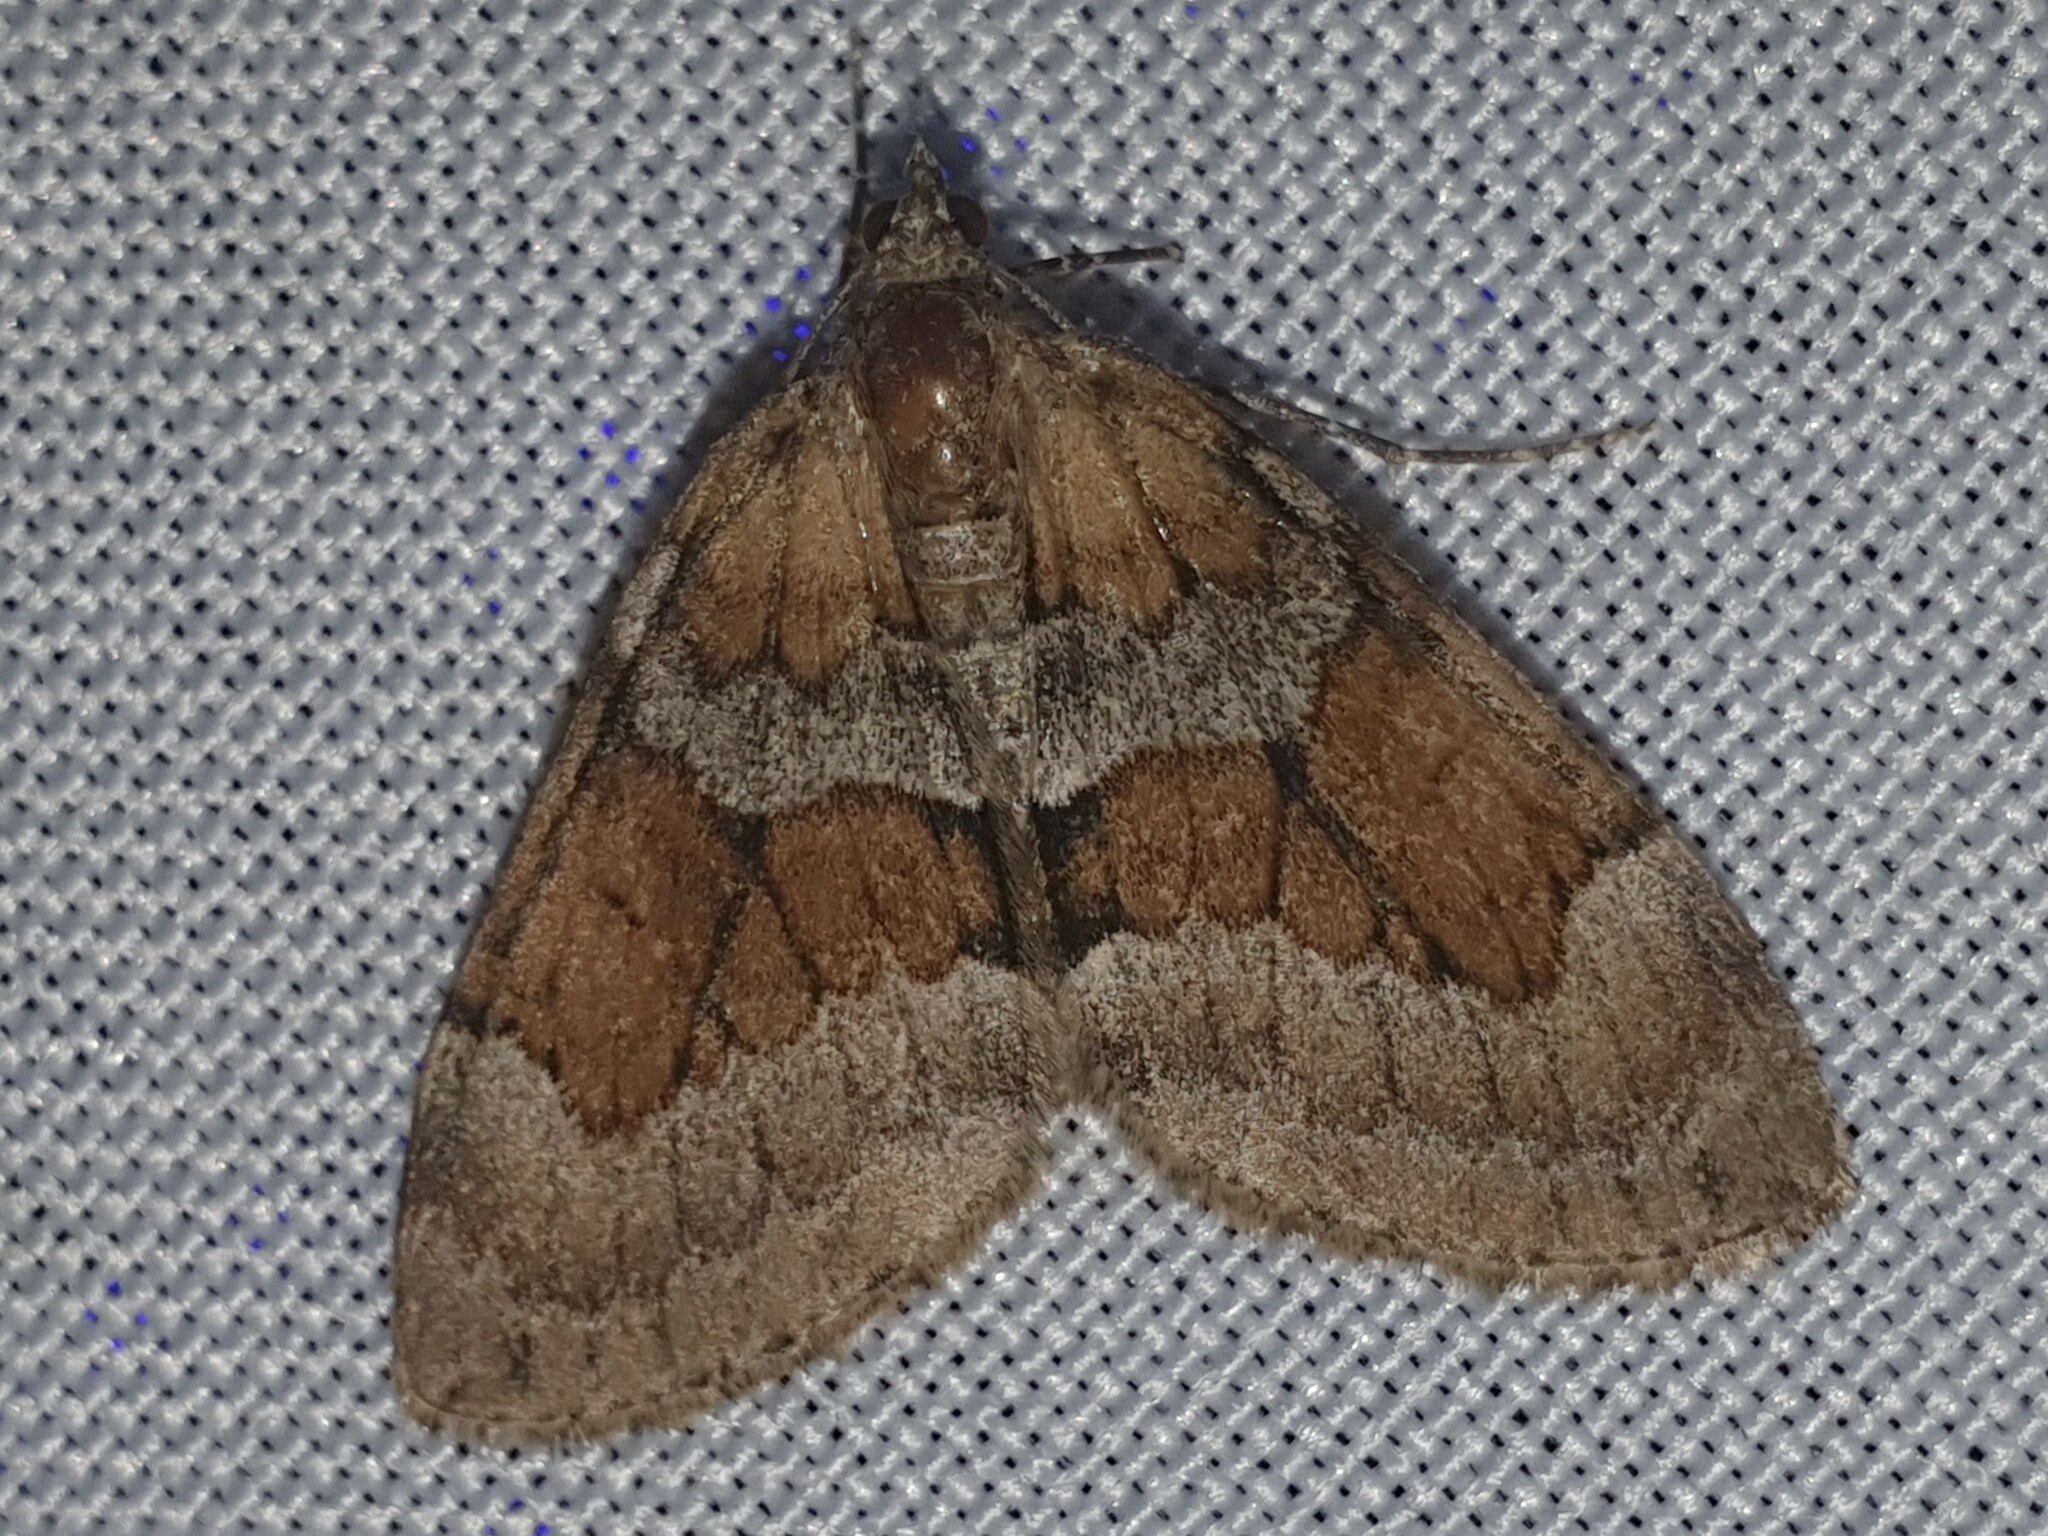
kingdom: Animalia
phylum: Arthropoda
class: Insecta
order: Lepidoptera
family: Geometridae
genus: Thera
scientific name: Thera obeliscata
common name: Grey pine carpet
